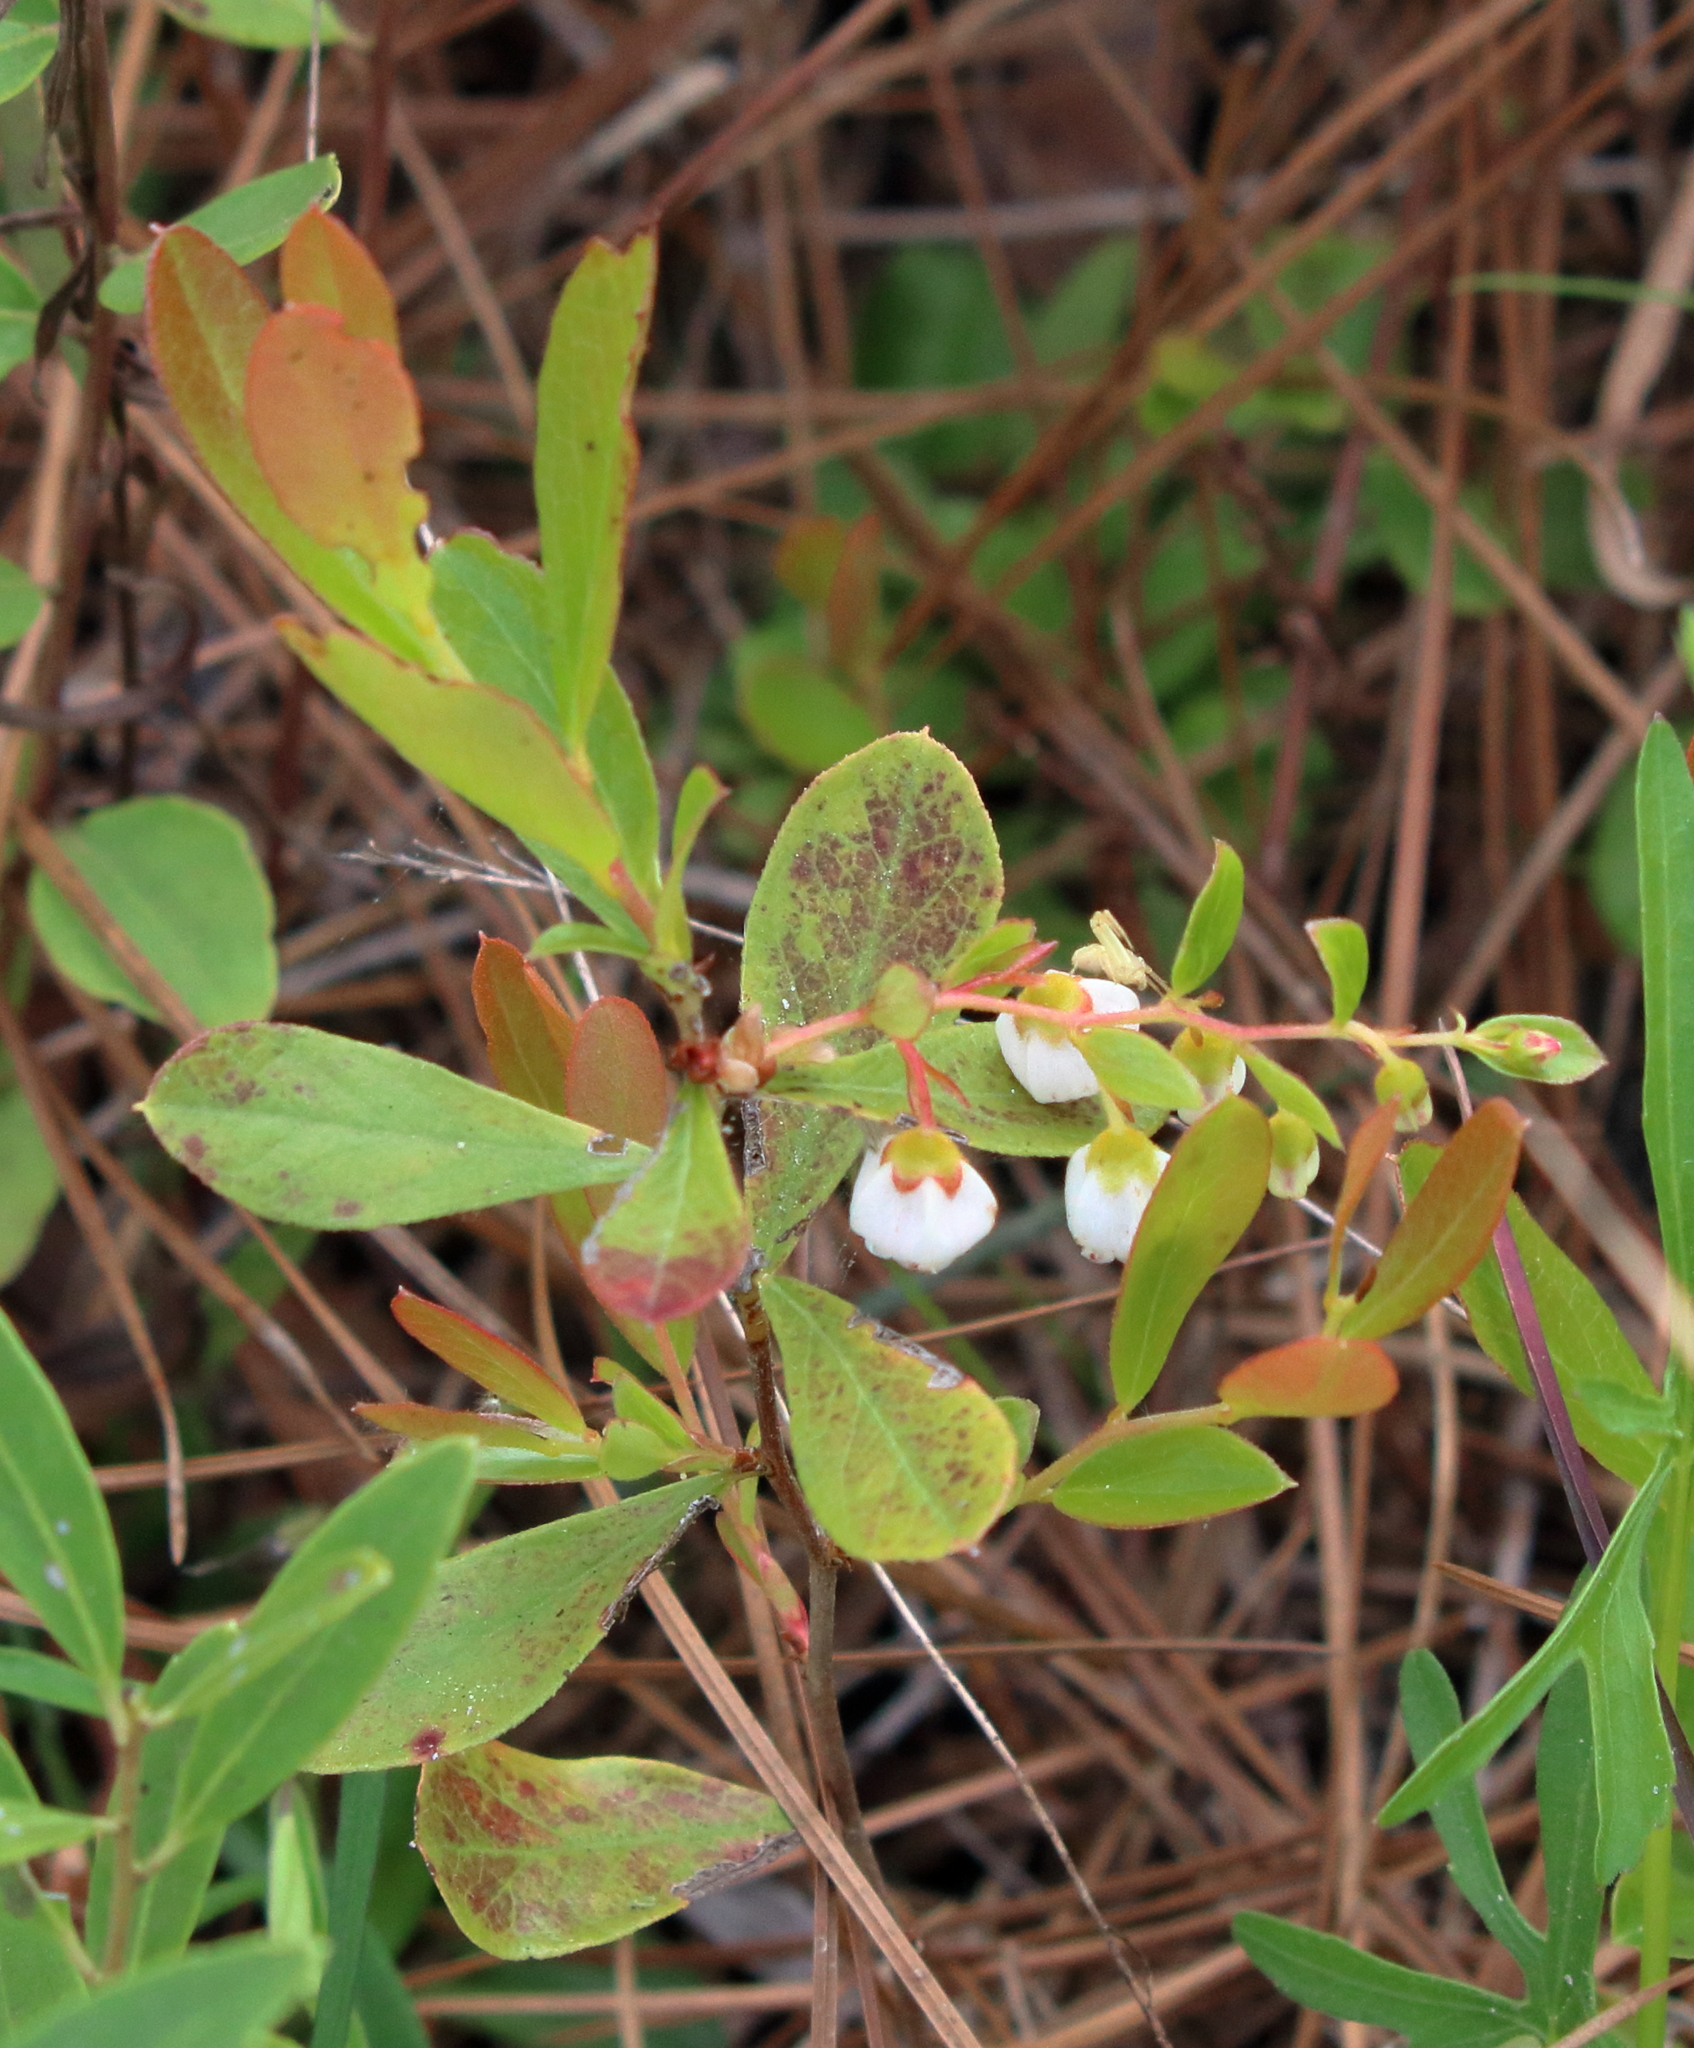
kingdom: Plantae
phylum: Tracheophyta
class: Magnoliopsida
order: Ericales
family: Ericaceae
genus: Gaylussacia
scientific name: Gaylussacia dumosa
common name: Dwarf huckleberry
